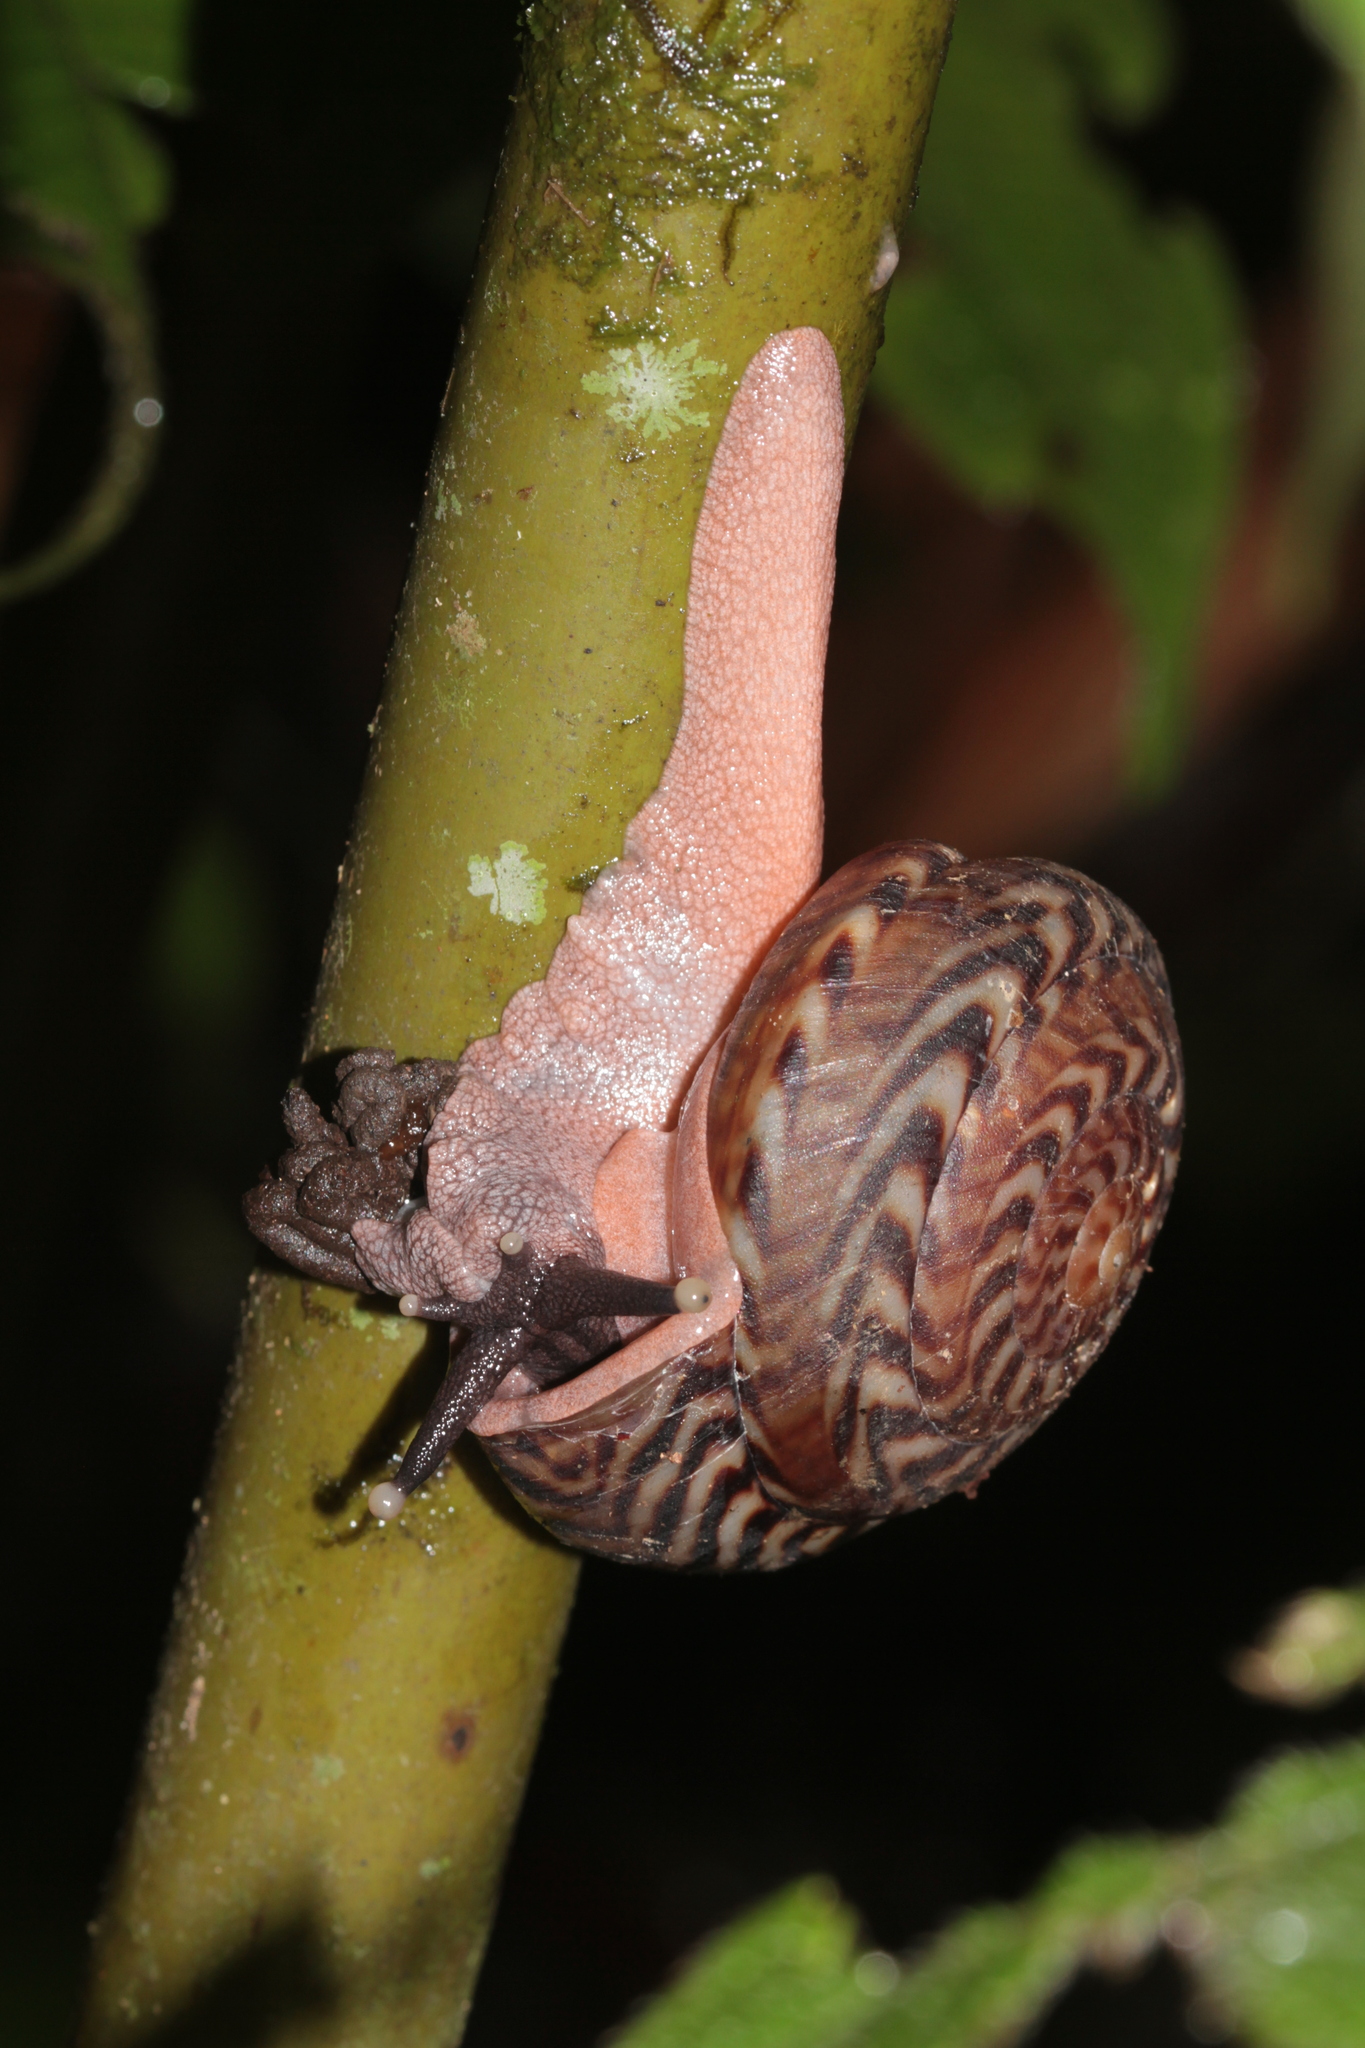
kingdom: Animalia
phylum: Mollusca
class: Gastropoda
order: Stylommatophora
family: Solaropsidae
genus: Solaropsis
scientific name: Solaropsis undata
